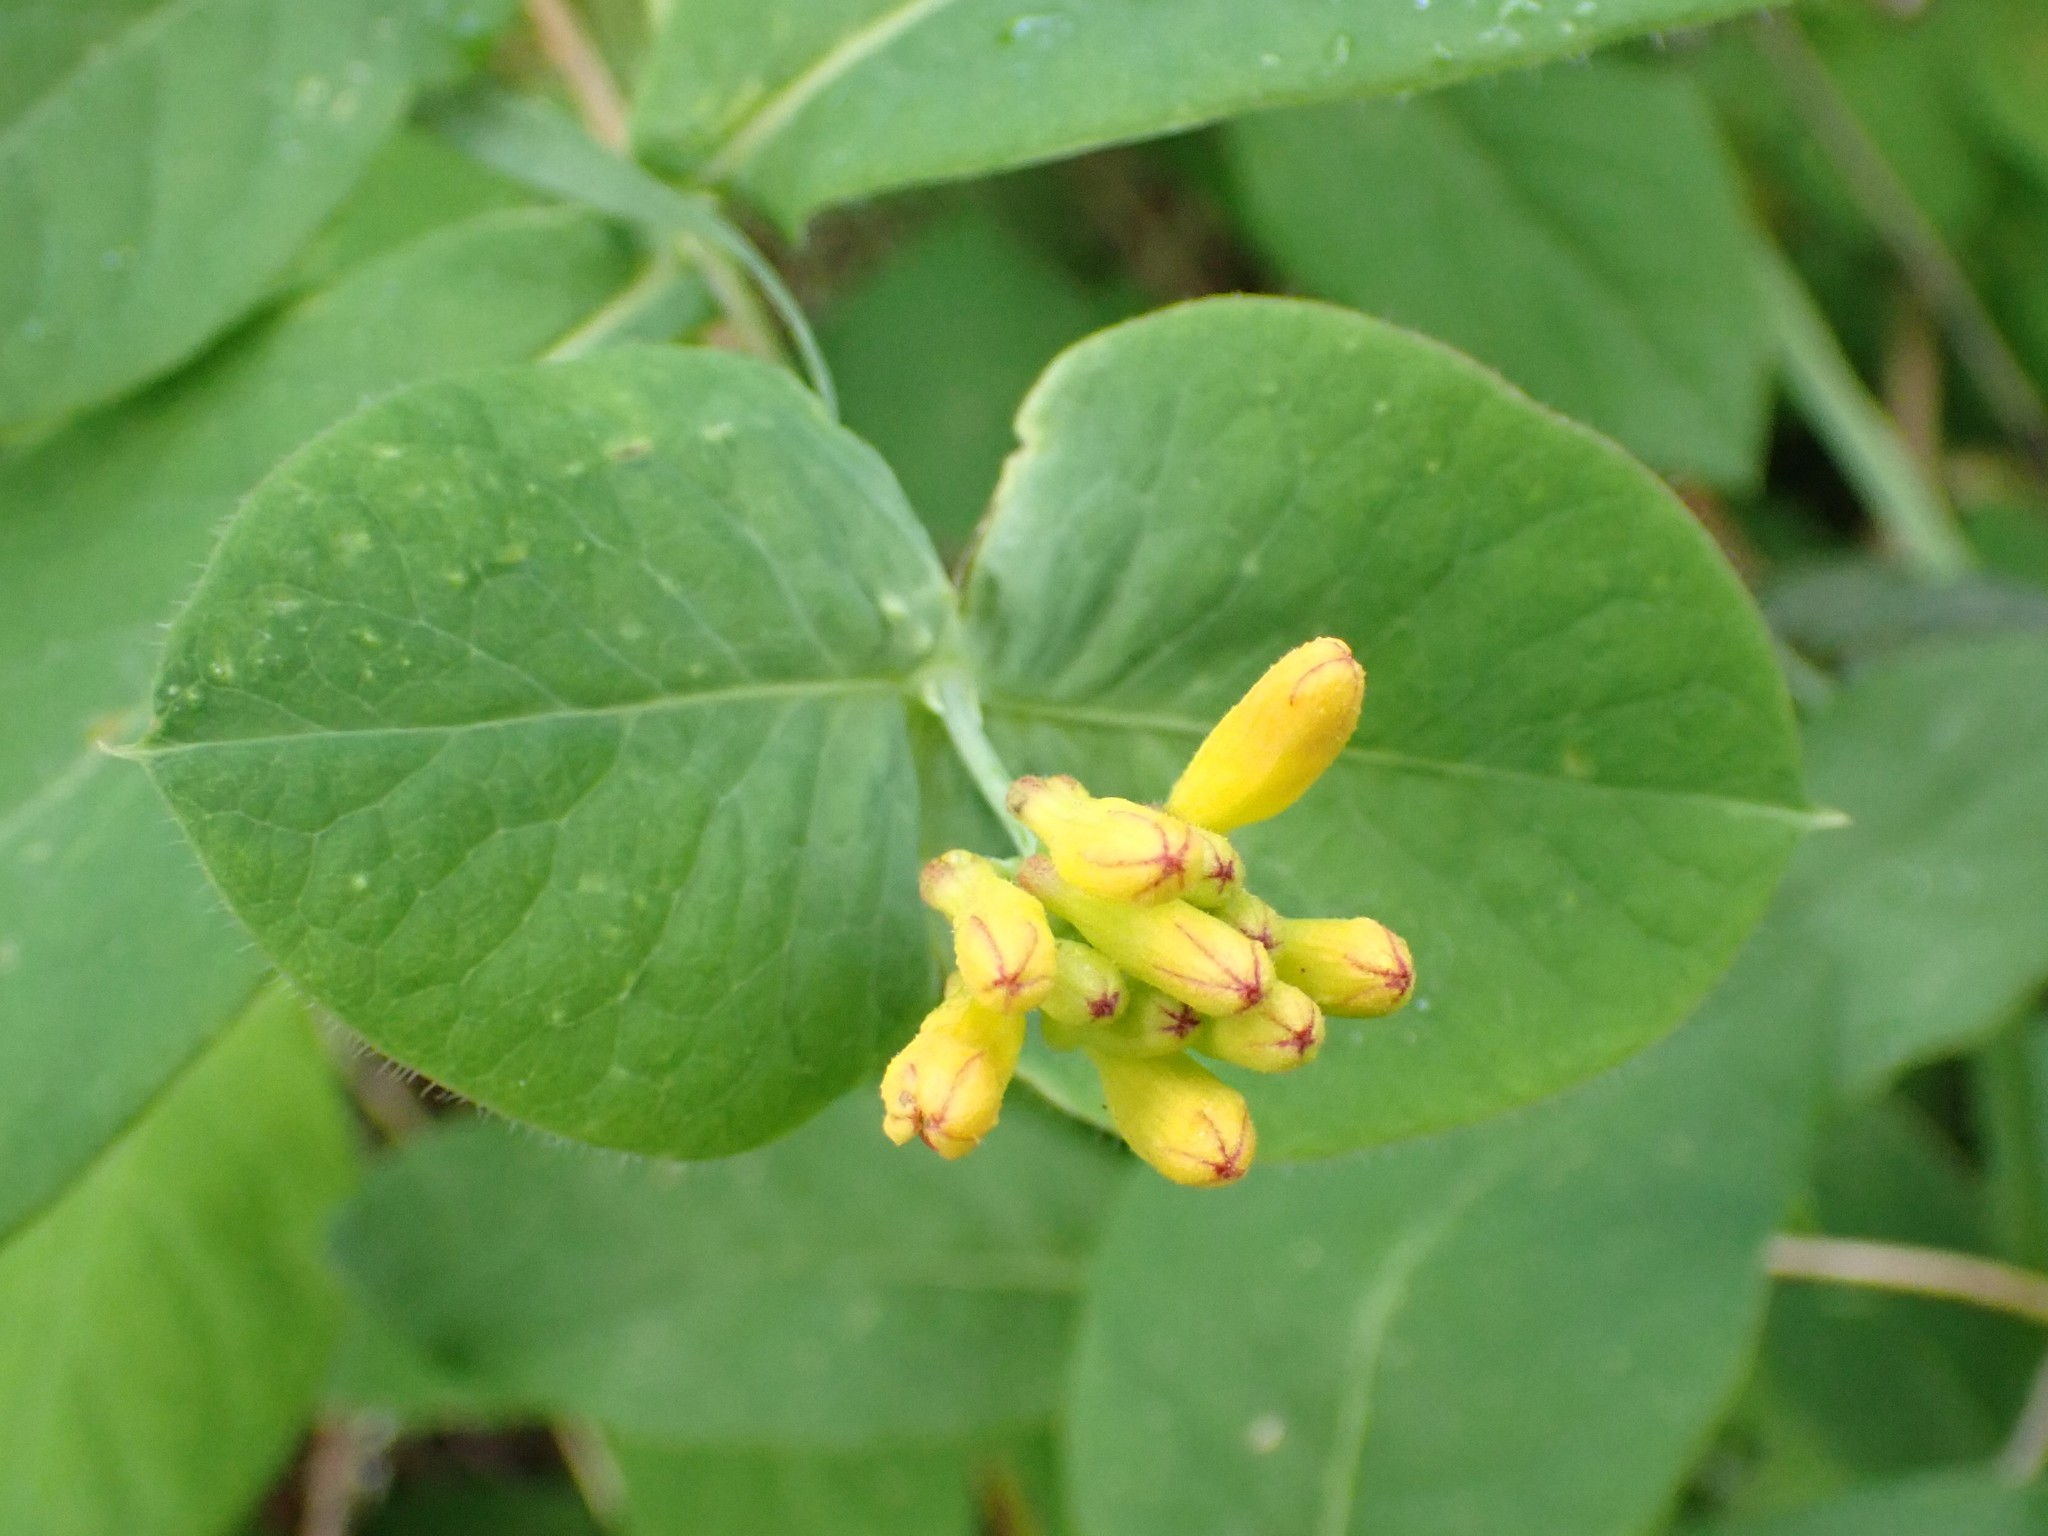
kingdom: Plantae
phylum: Tracheophyta
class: Magnoliopsida
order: Dipsacales
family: Caprifoliaceae
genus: Lonicera
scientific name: Lonicera ciliosa
